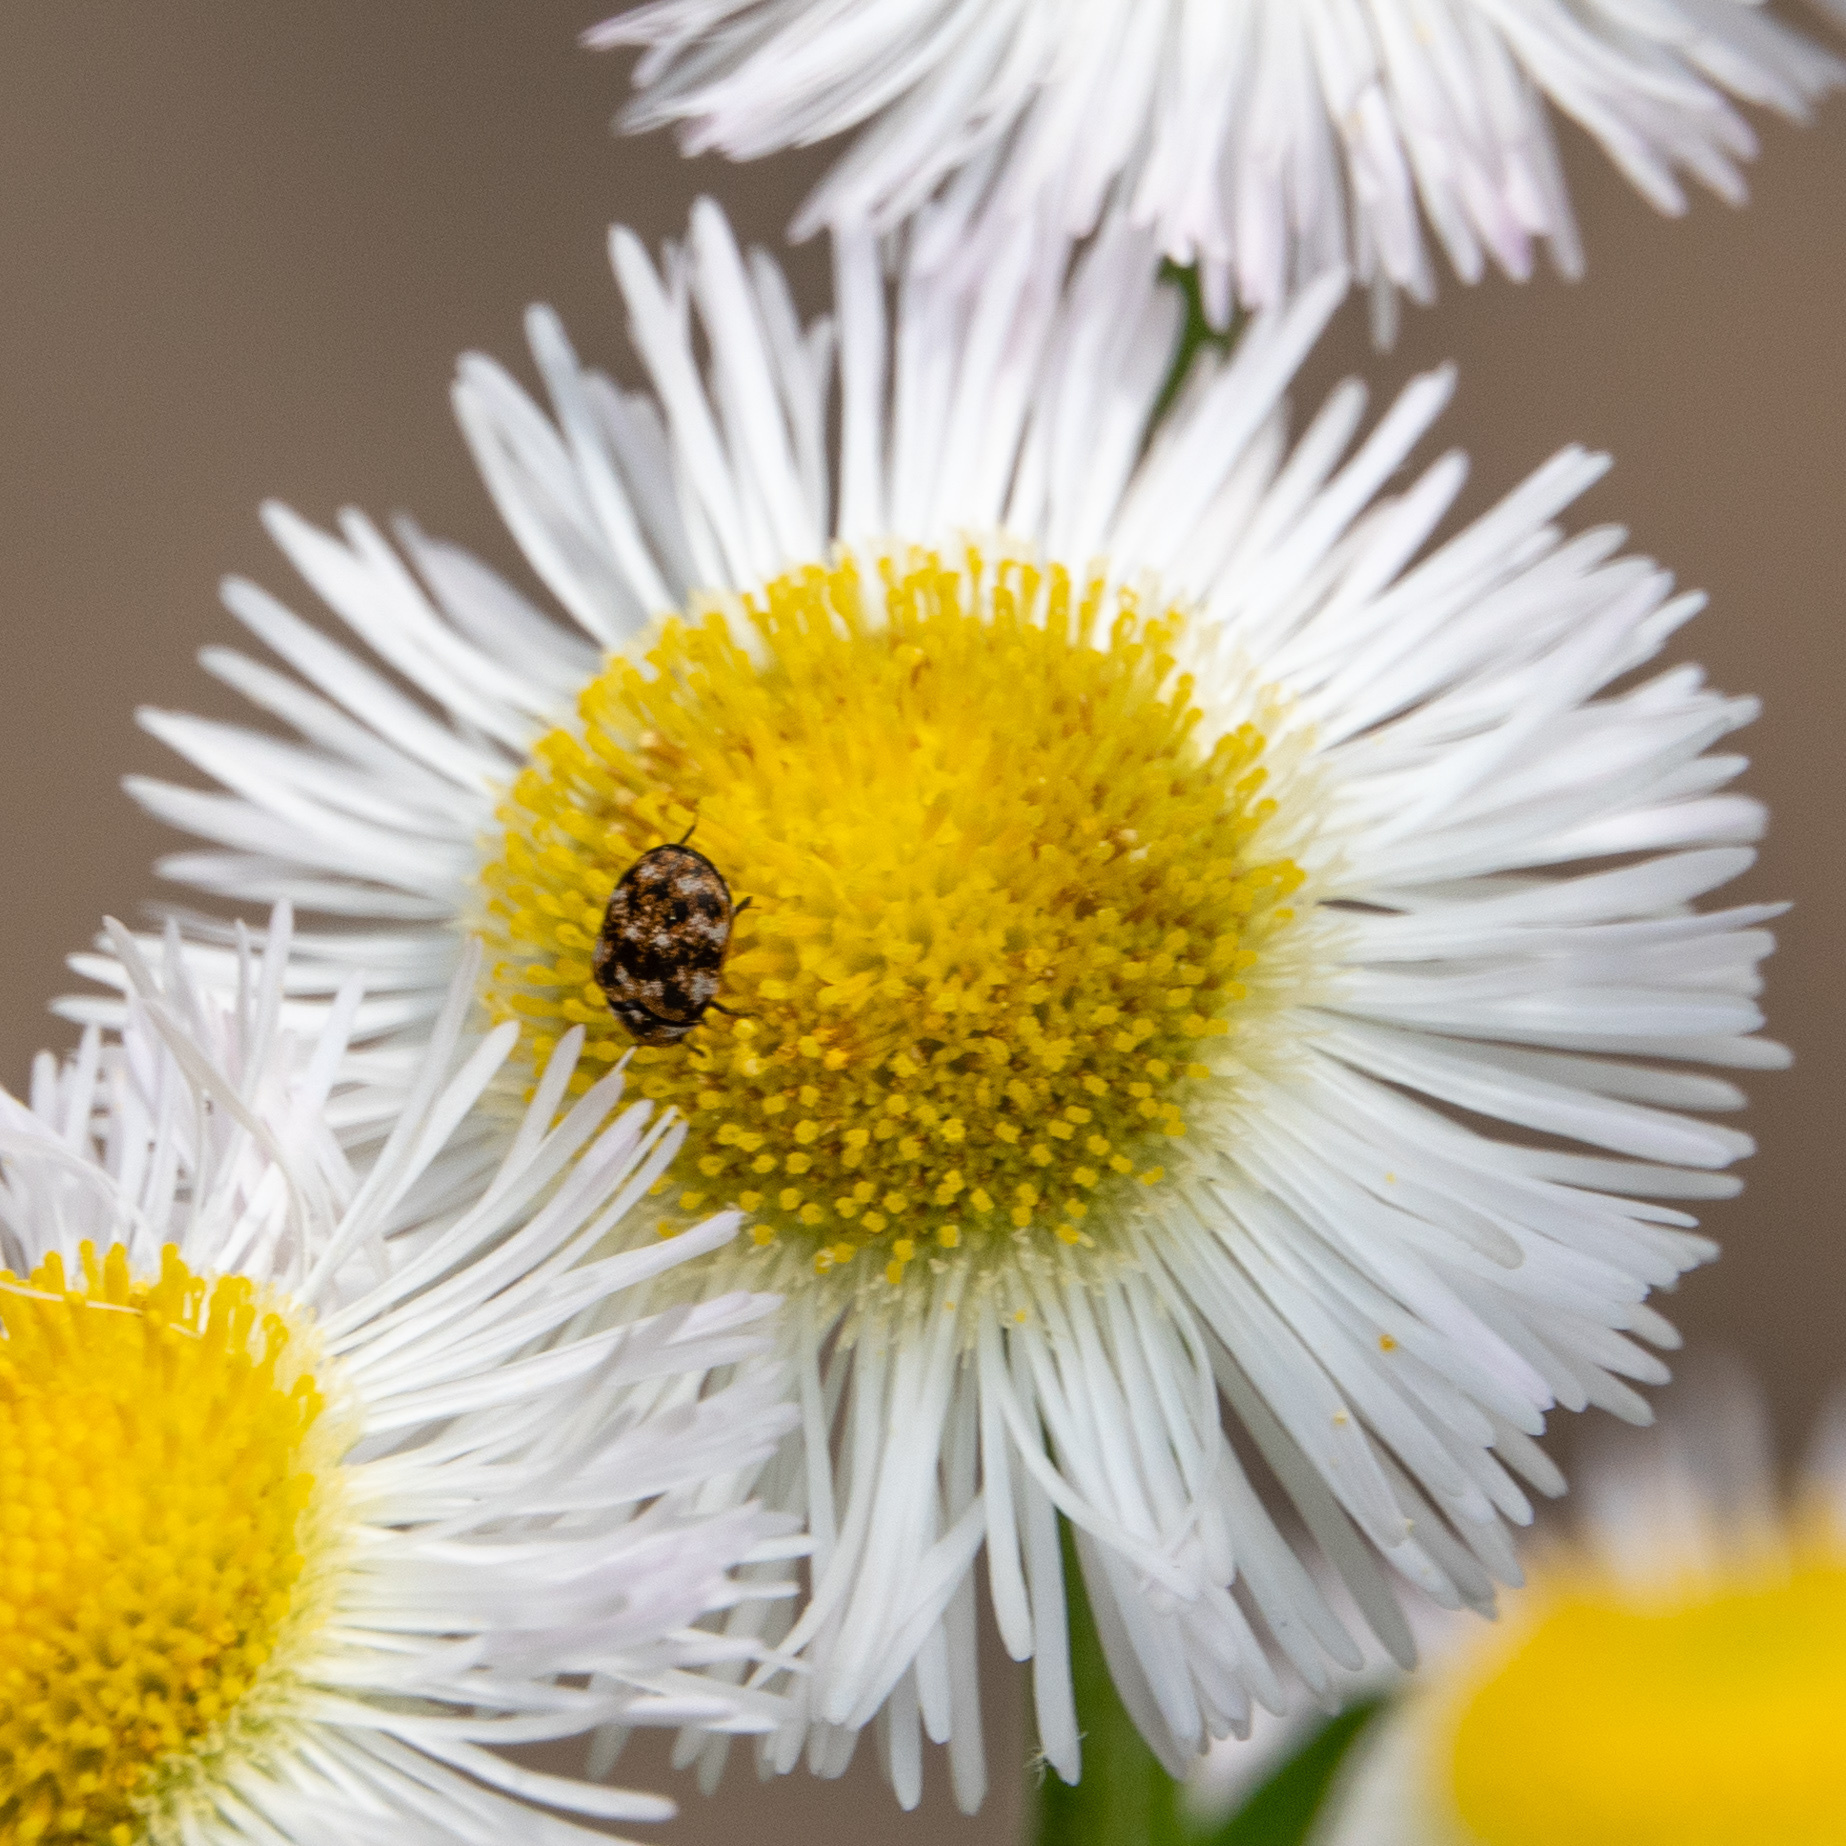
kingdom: Animalia
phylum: Arthropoda
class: Insecta
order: Coleoptera
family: Dermestidae
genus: Anthrenus
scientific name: Anthrenus verbasci
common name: Varied carpet beetle
